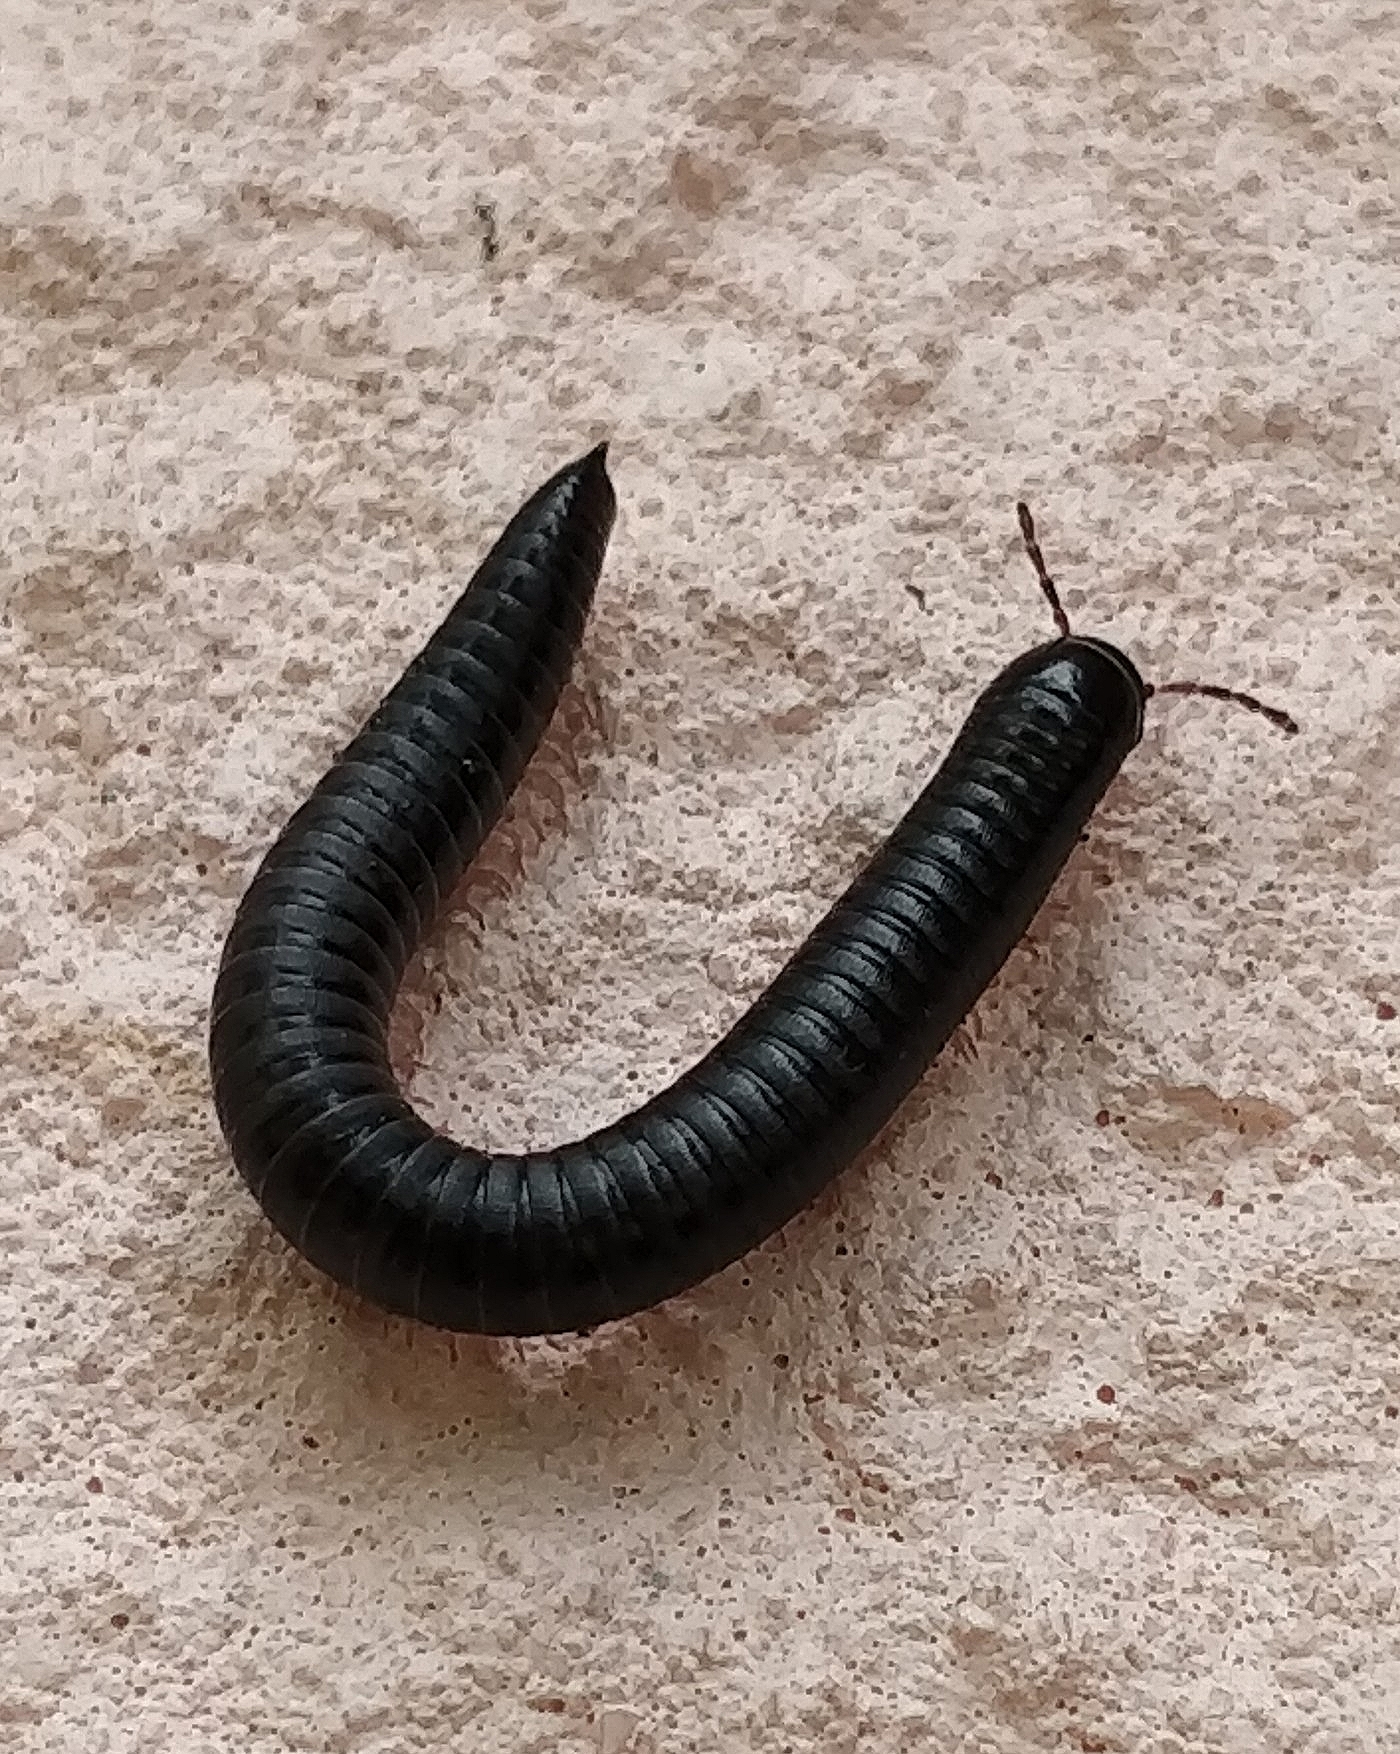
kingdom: Animalia
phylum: Arthropoda
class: Diplopoda
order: Julida
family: Julidae
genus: Ommatoiulus
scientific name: Ommatoiulus moreleti
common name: Portuguese millipede
